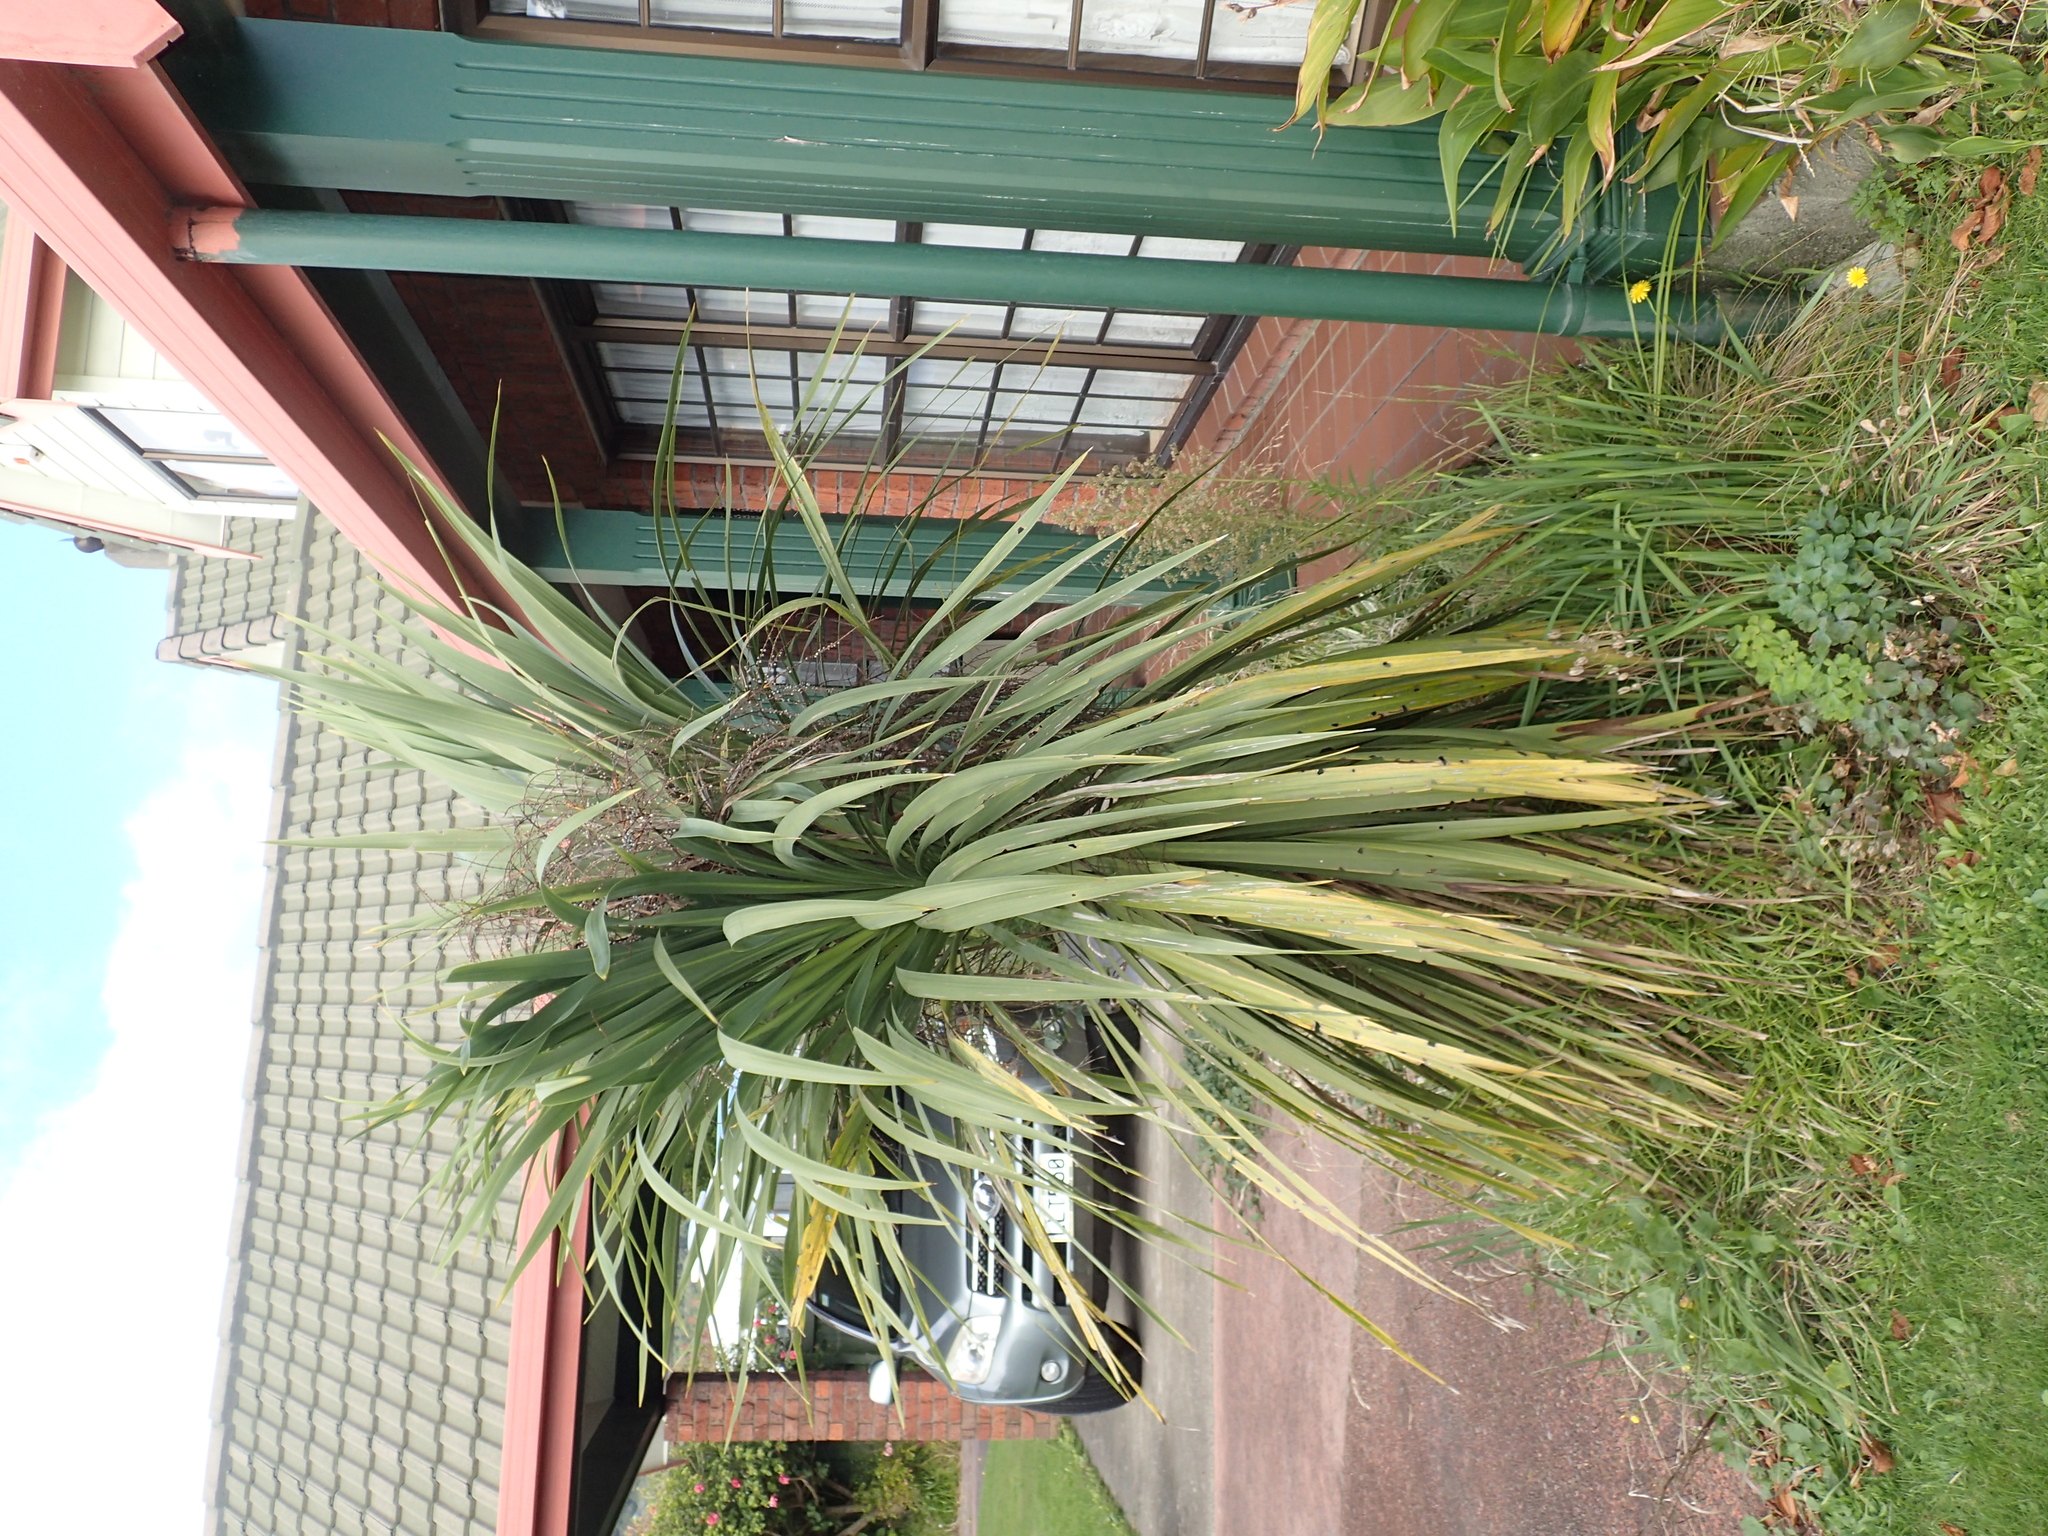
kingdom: Plantae
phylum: Tracheophyta
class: Liliopsida
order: Asparagales
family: Asparagaceae
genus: Cordyline
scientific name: Cordyline australis
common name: Cabbage-palm
